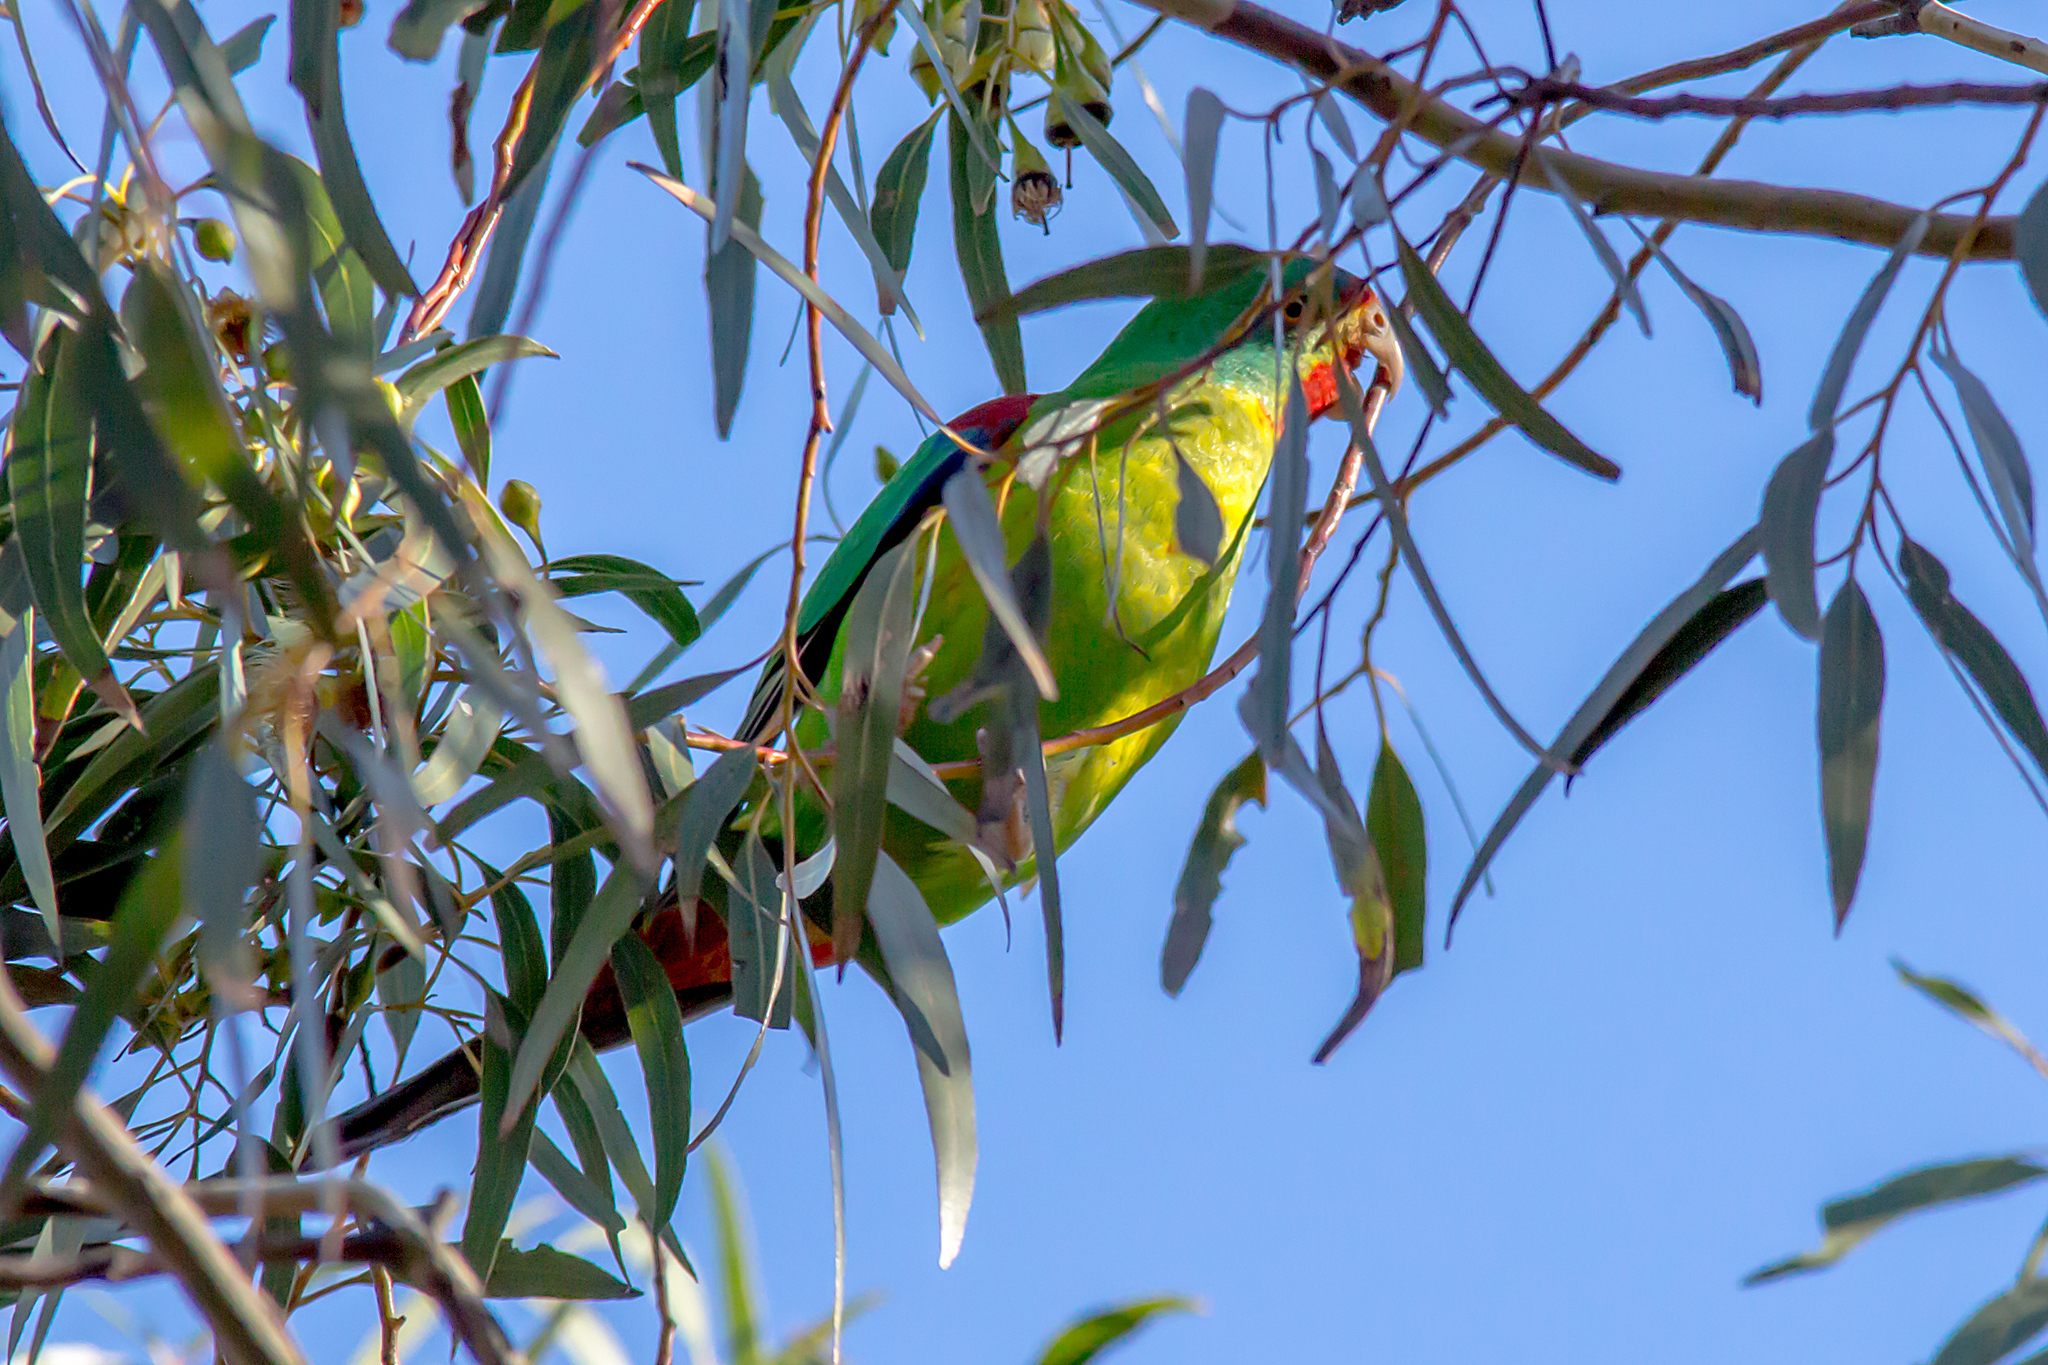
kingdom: Animalia
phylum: Chordata
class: Aves
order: Psittaciformes
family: Psittacidae
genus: Lathamus
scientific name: Lathamus discolor
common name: Swift parrot
